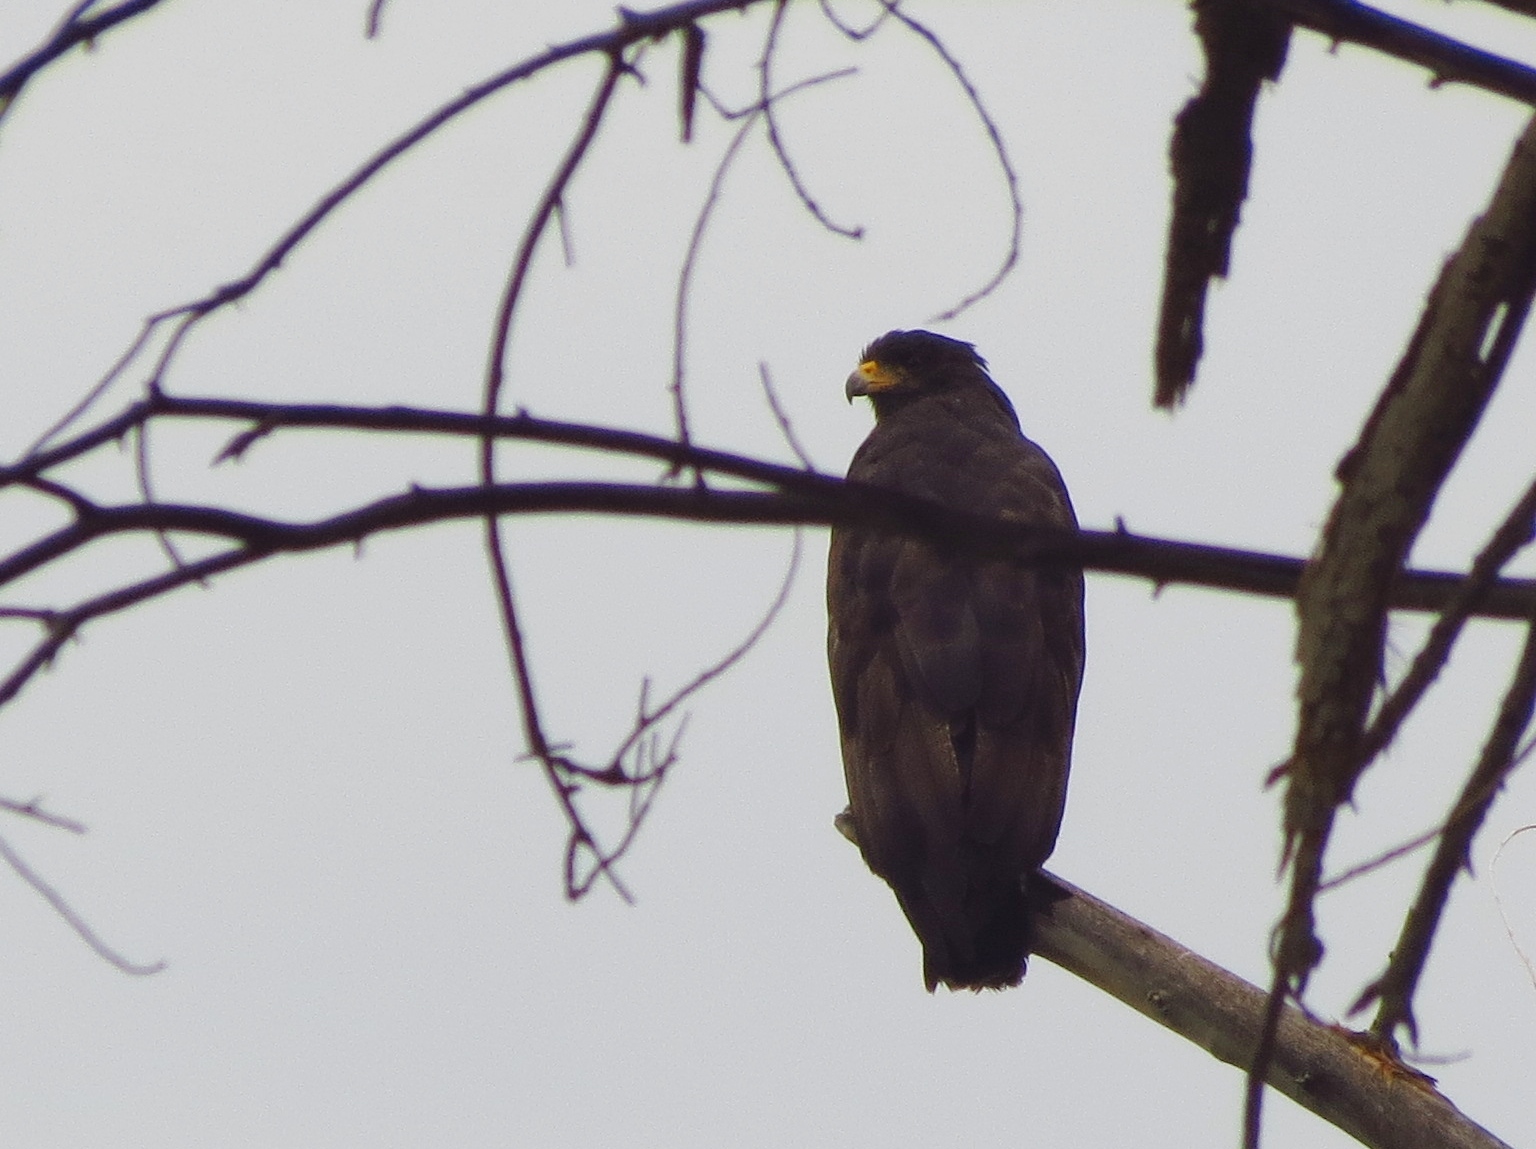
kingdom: Animalia
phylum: Chordata
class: Aves
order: Accipitriformes
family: Accipitridae
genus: Buteogallus
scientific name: Buteogallus anthracinus
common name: Common black hawk
